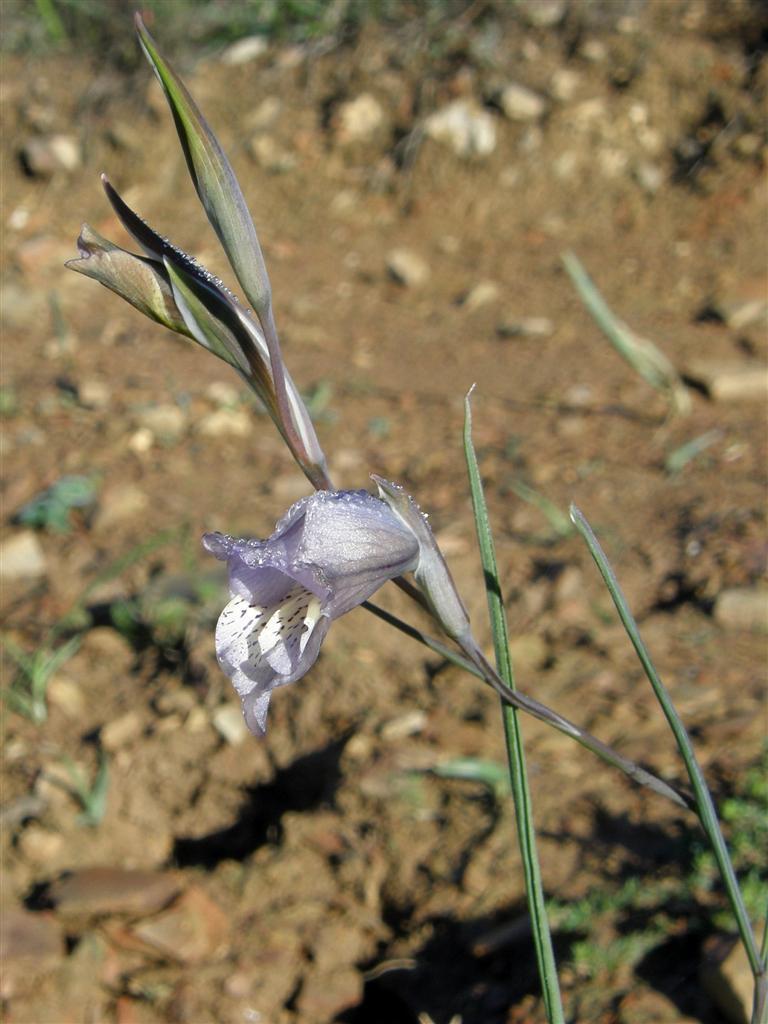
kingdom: Plantae
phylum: Tracheophyta
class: Liliopsida
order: Asparagales
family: Iridaceae
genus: Gladiolus
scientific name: Gladiolus gracilis
